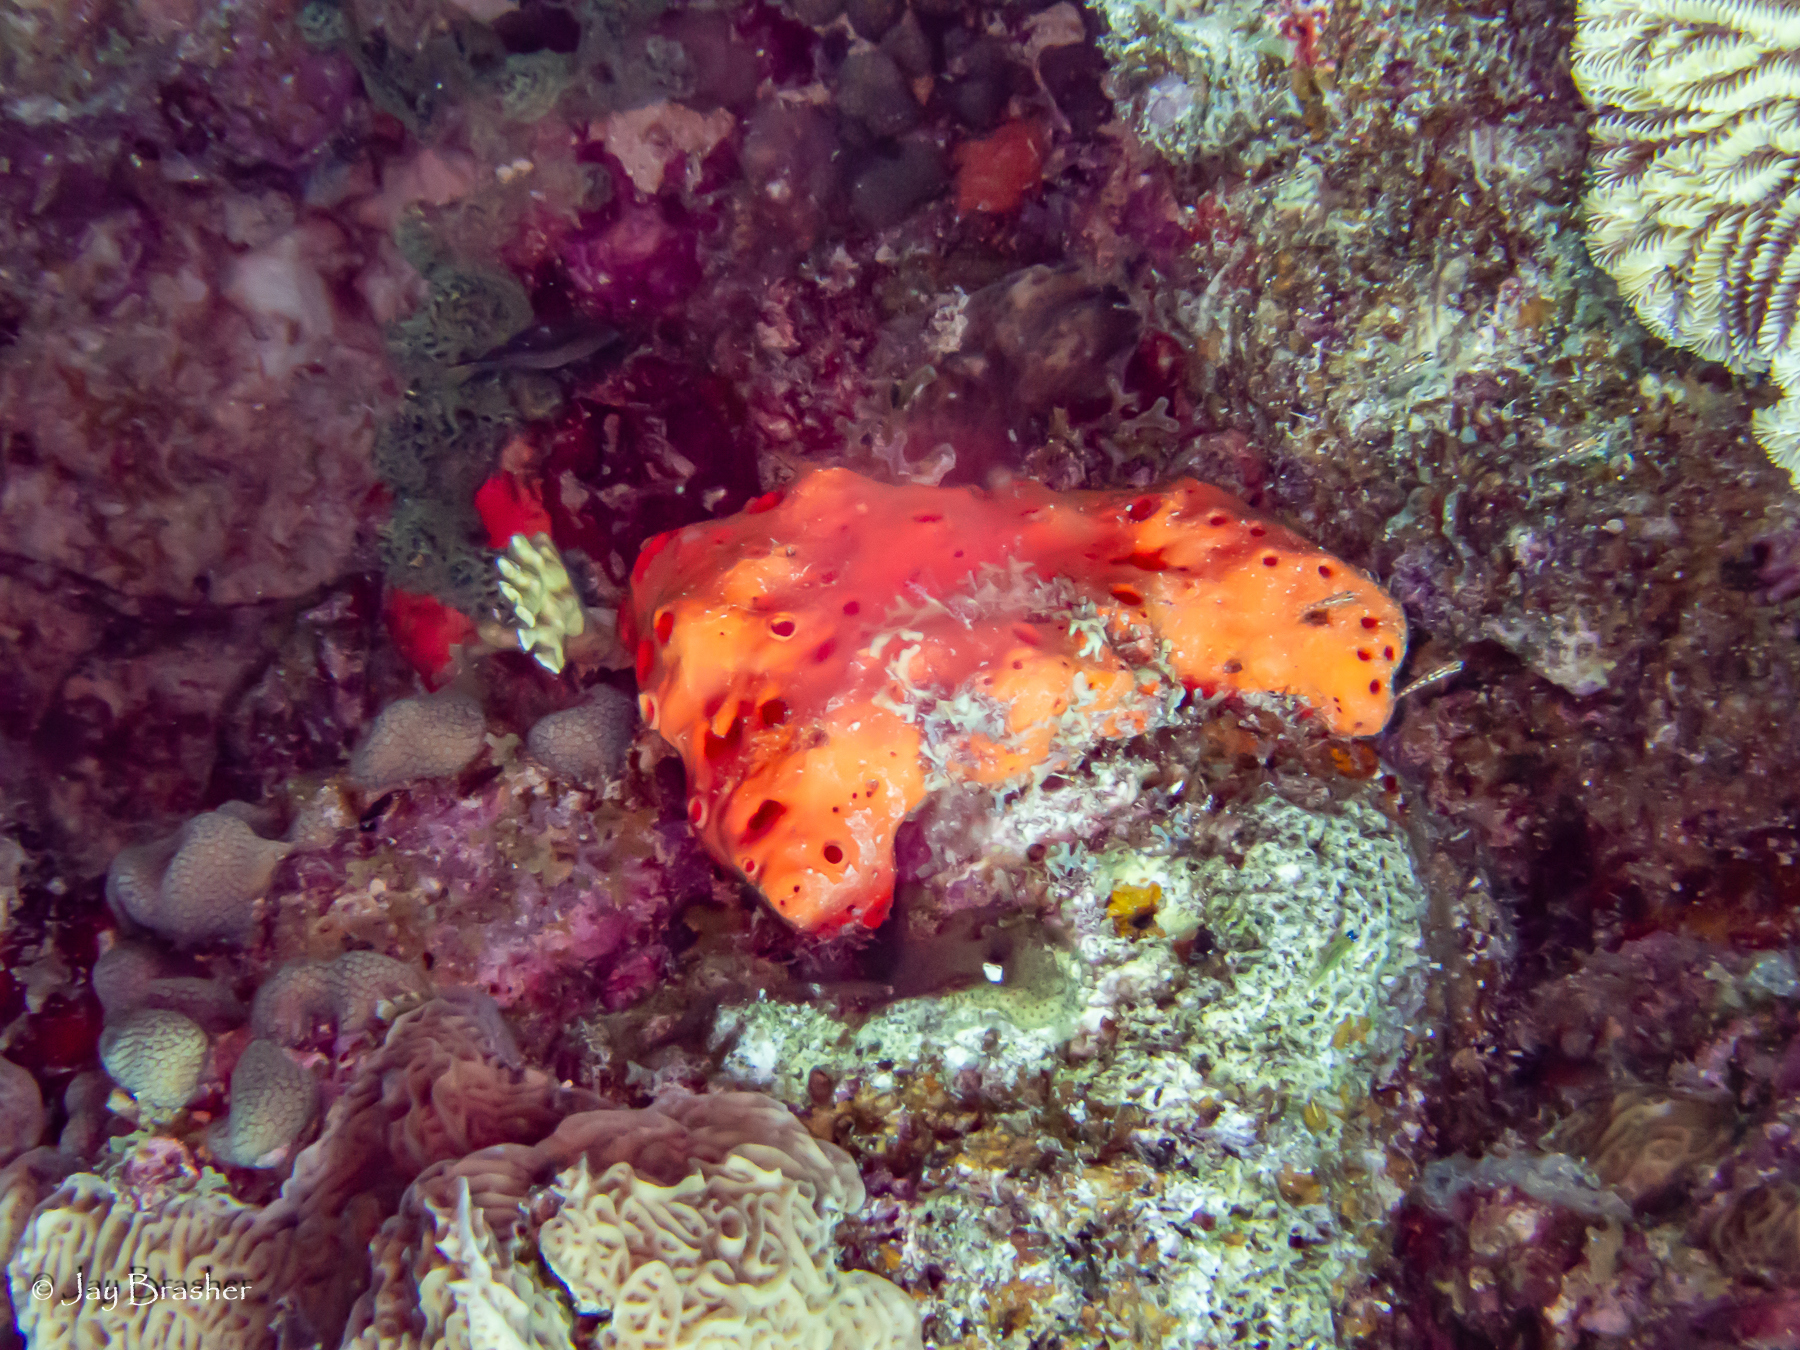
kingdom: Animalia
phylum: Porifera
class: Demospongiae
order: Agelasida
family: Agelasidae
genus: Agelas
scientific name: Agelas sventres
